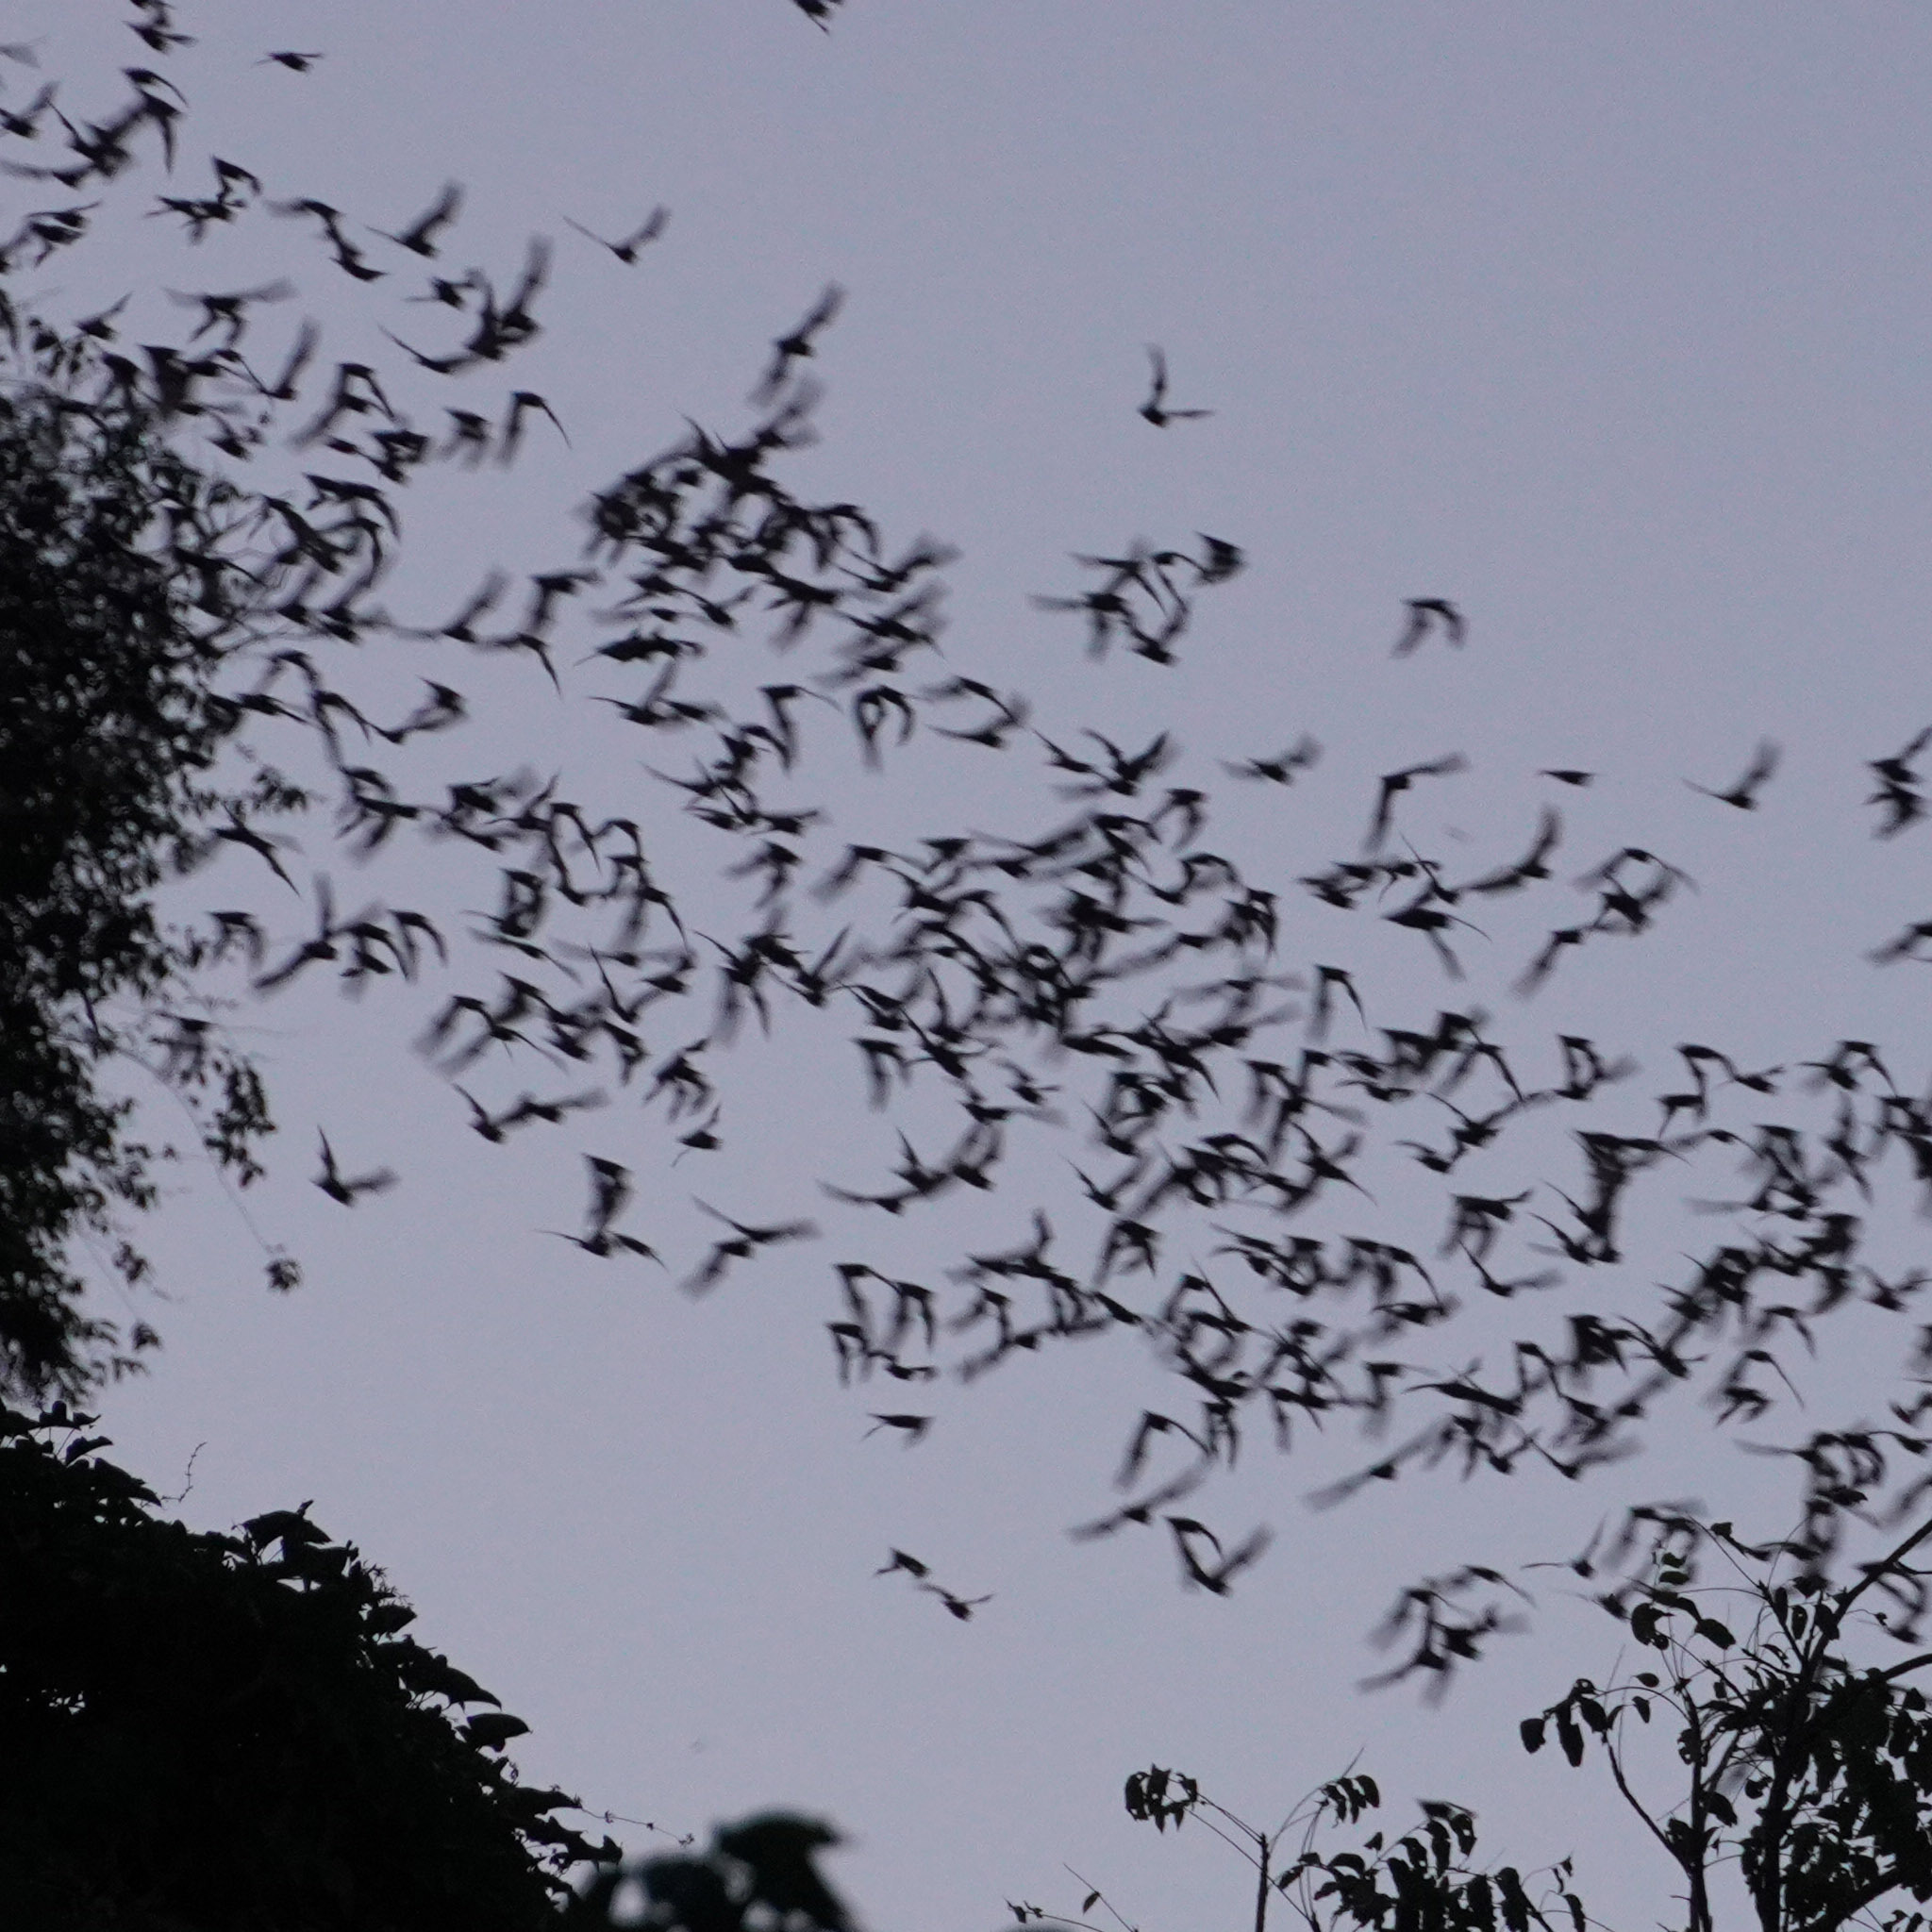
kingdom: Animalia
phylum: Chordata
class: Mammalia
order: Chiroptera
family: Molossidae
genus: Mops
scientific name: Mops
